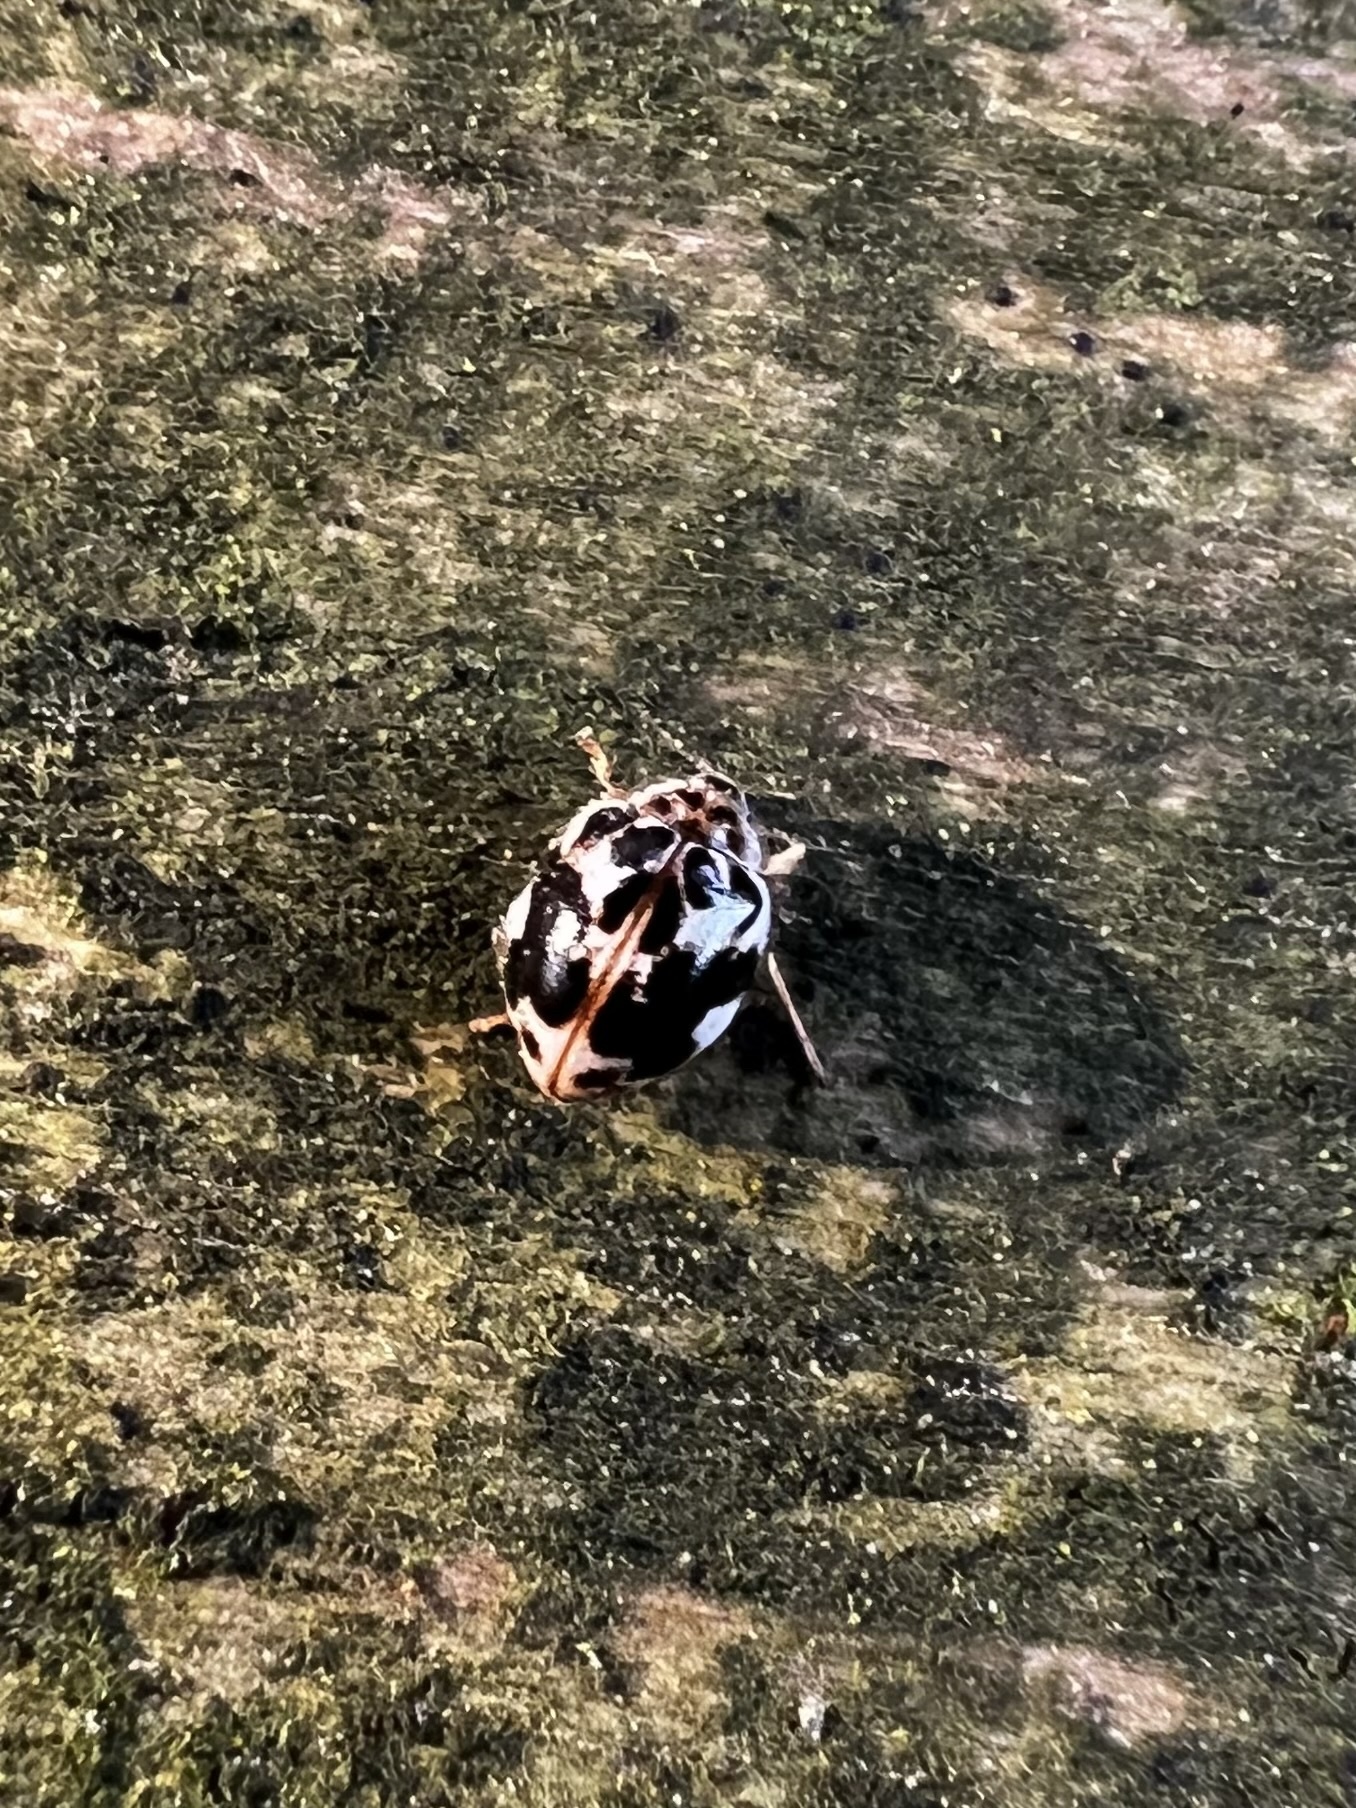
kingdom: Animalia
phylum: Arthropoda
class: Insecta
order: Coleoptera
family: Coccinellidae
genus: Psyllobora
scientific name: Psyllobora vigintimaculata
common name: Ladybird beetle
